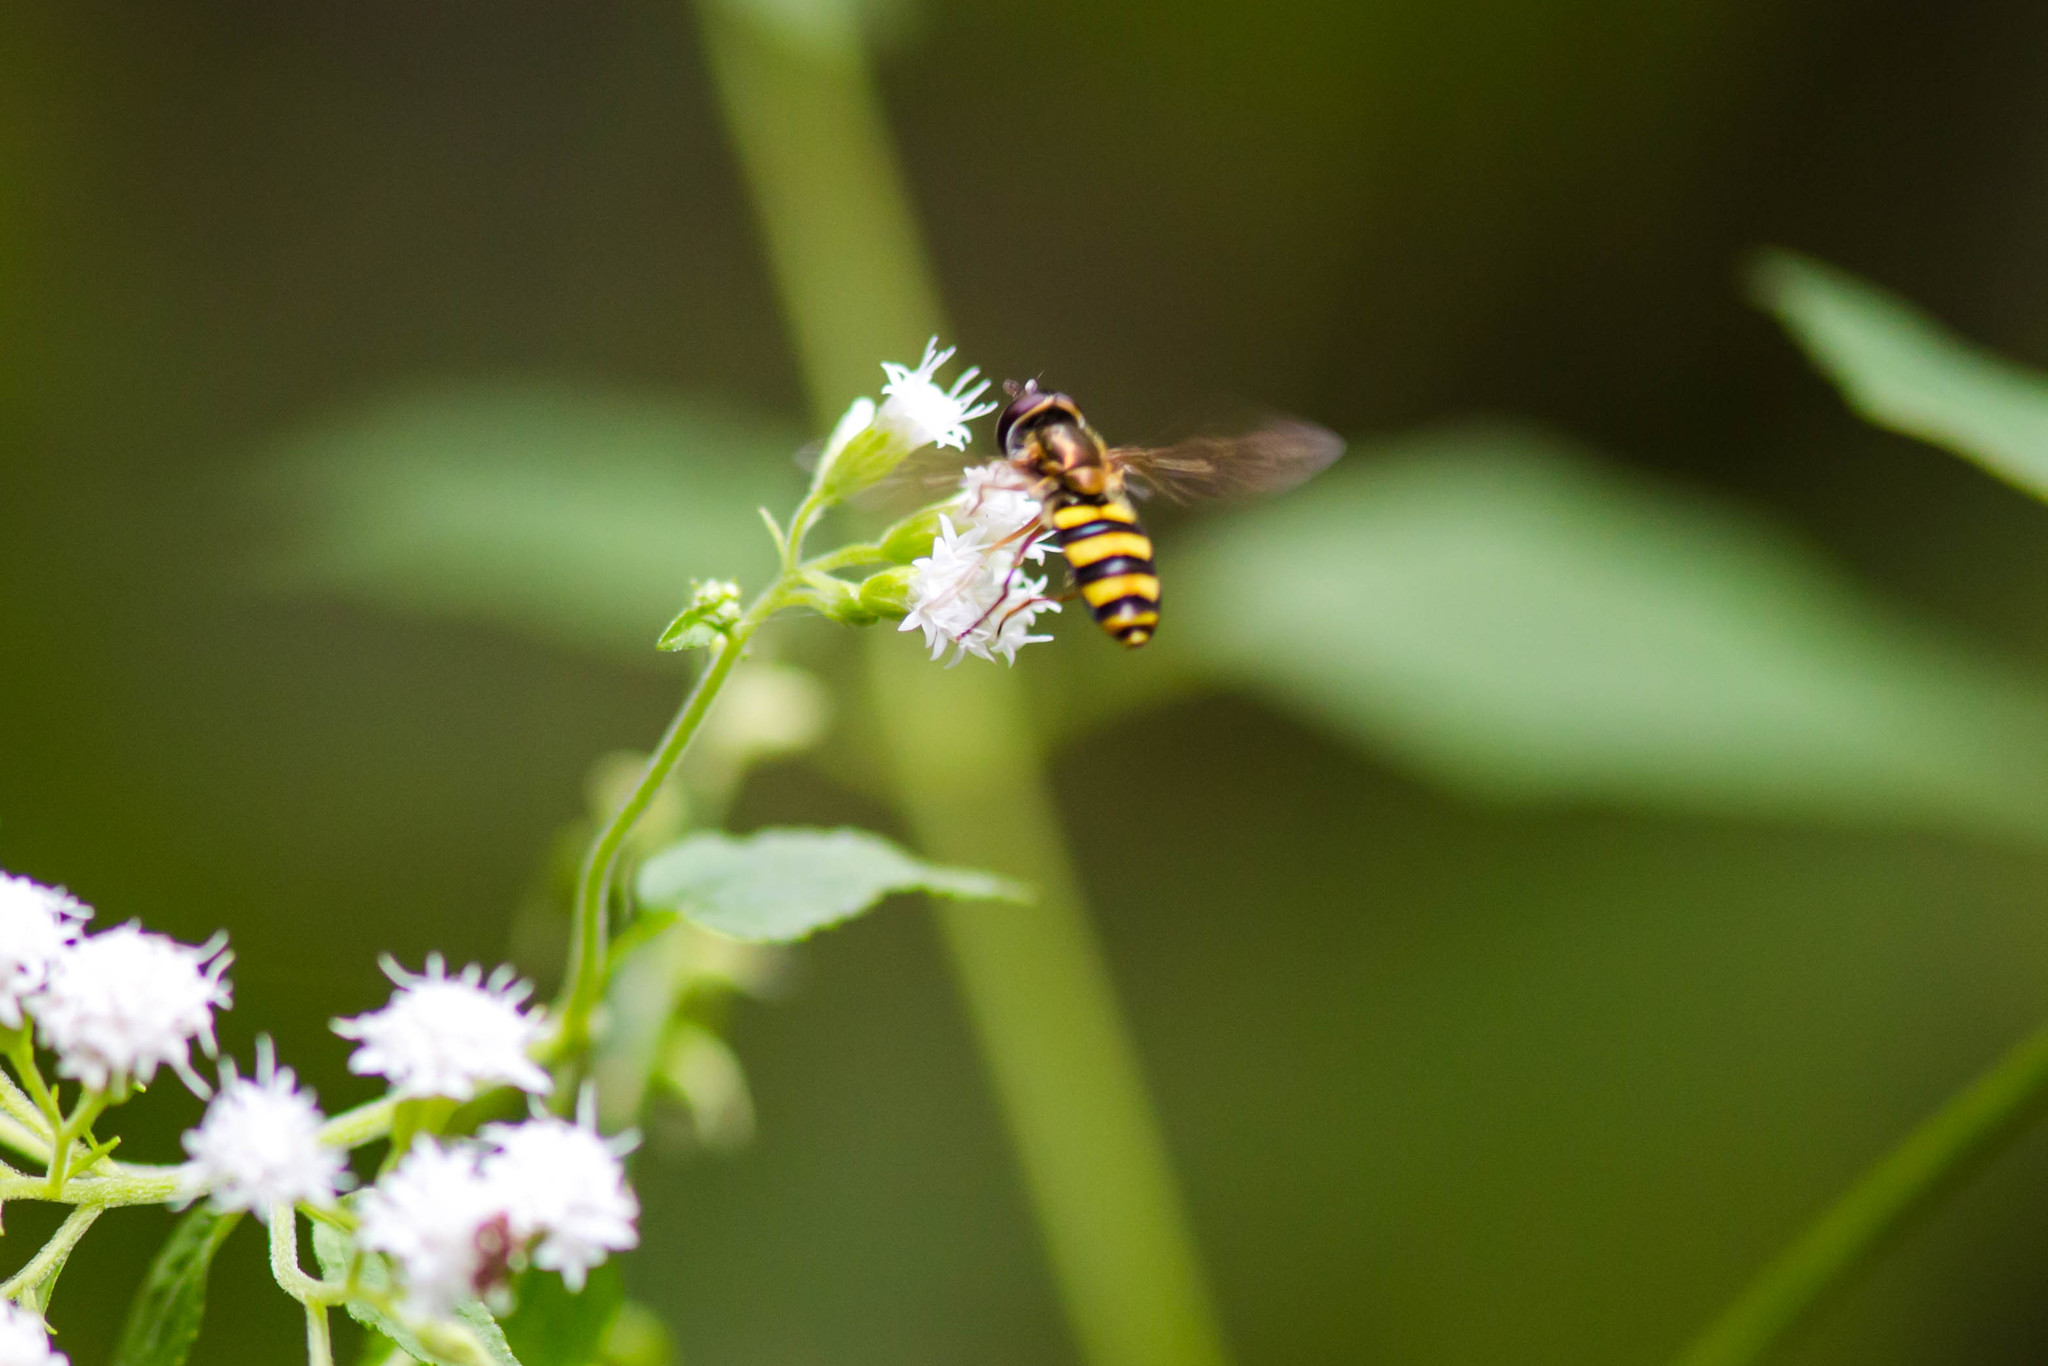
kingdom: Animalia
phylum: Arthropoda
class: Insecta
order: Diptera
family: Syrphidae
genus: Eupeodes
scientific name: Eupeodes
